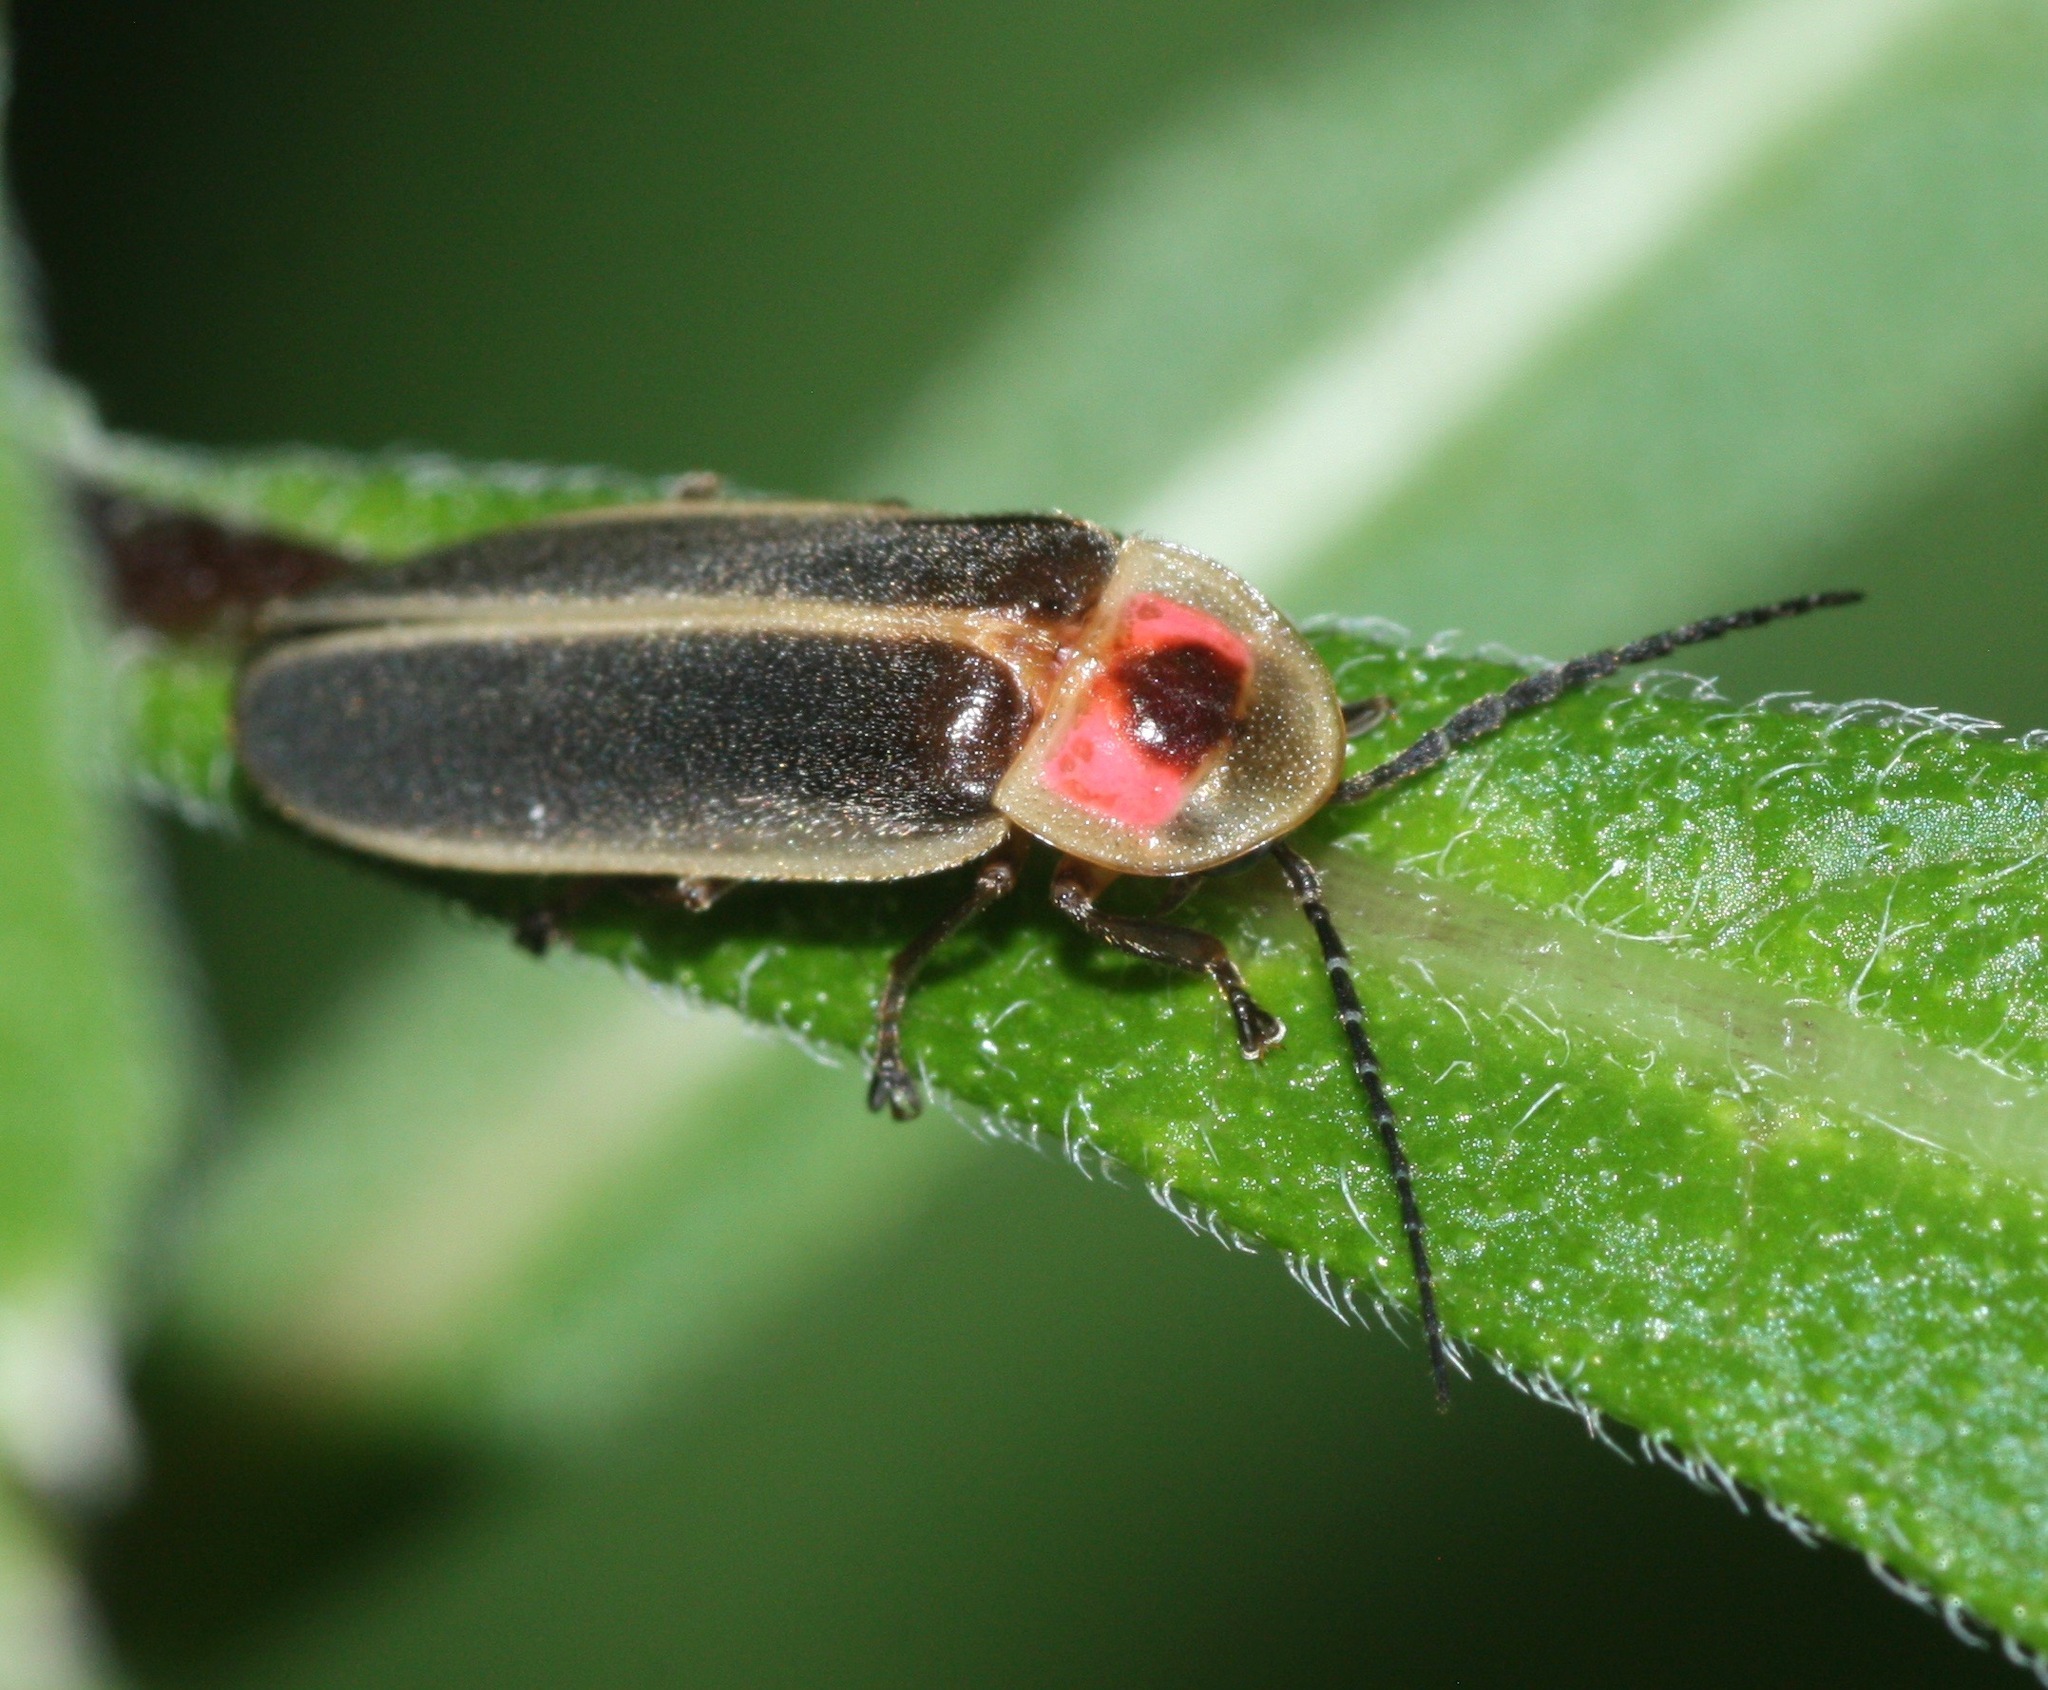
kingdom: Animalia
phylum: Arthropoda
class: Insecta
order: Coleoptera
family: Lampyridae
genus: Photinus
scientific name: Photinus pyralis
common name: Big dipper firefly
